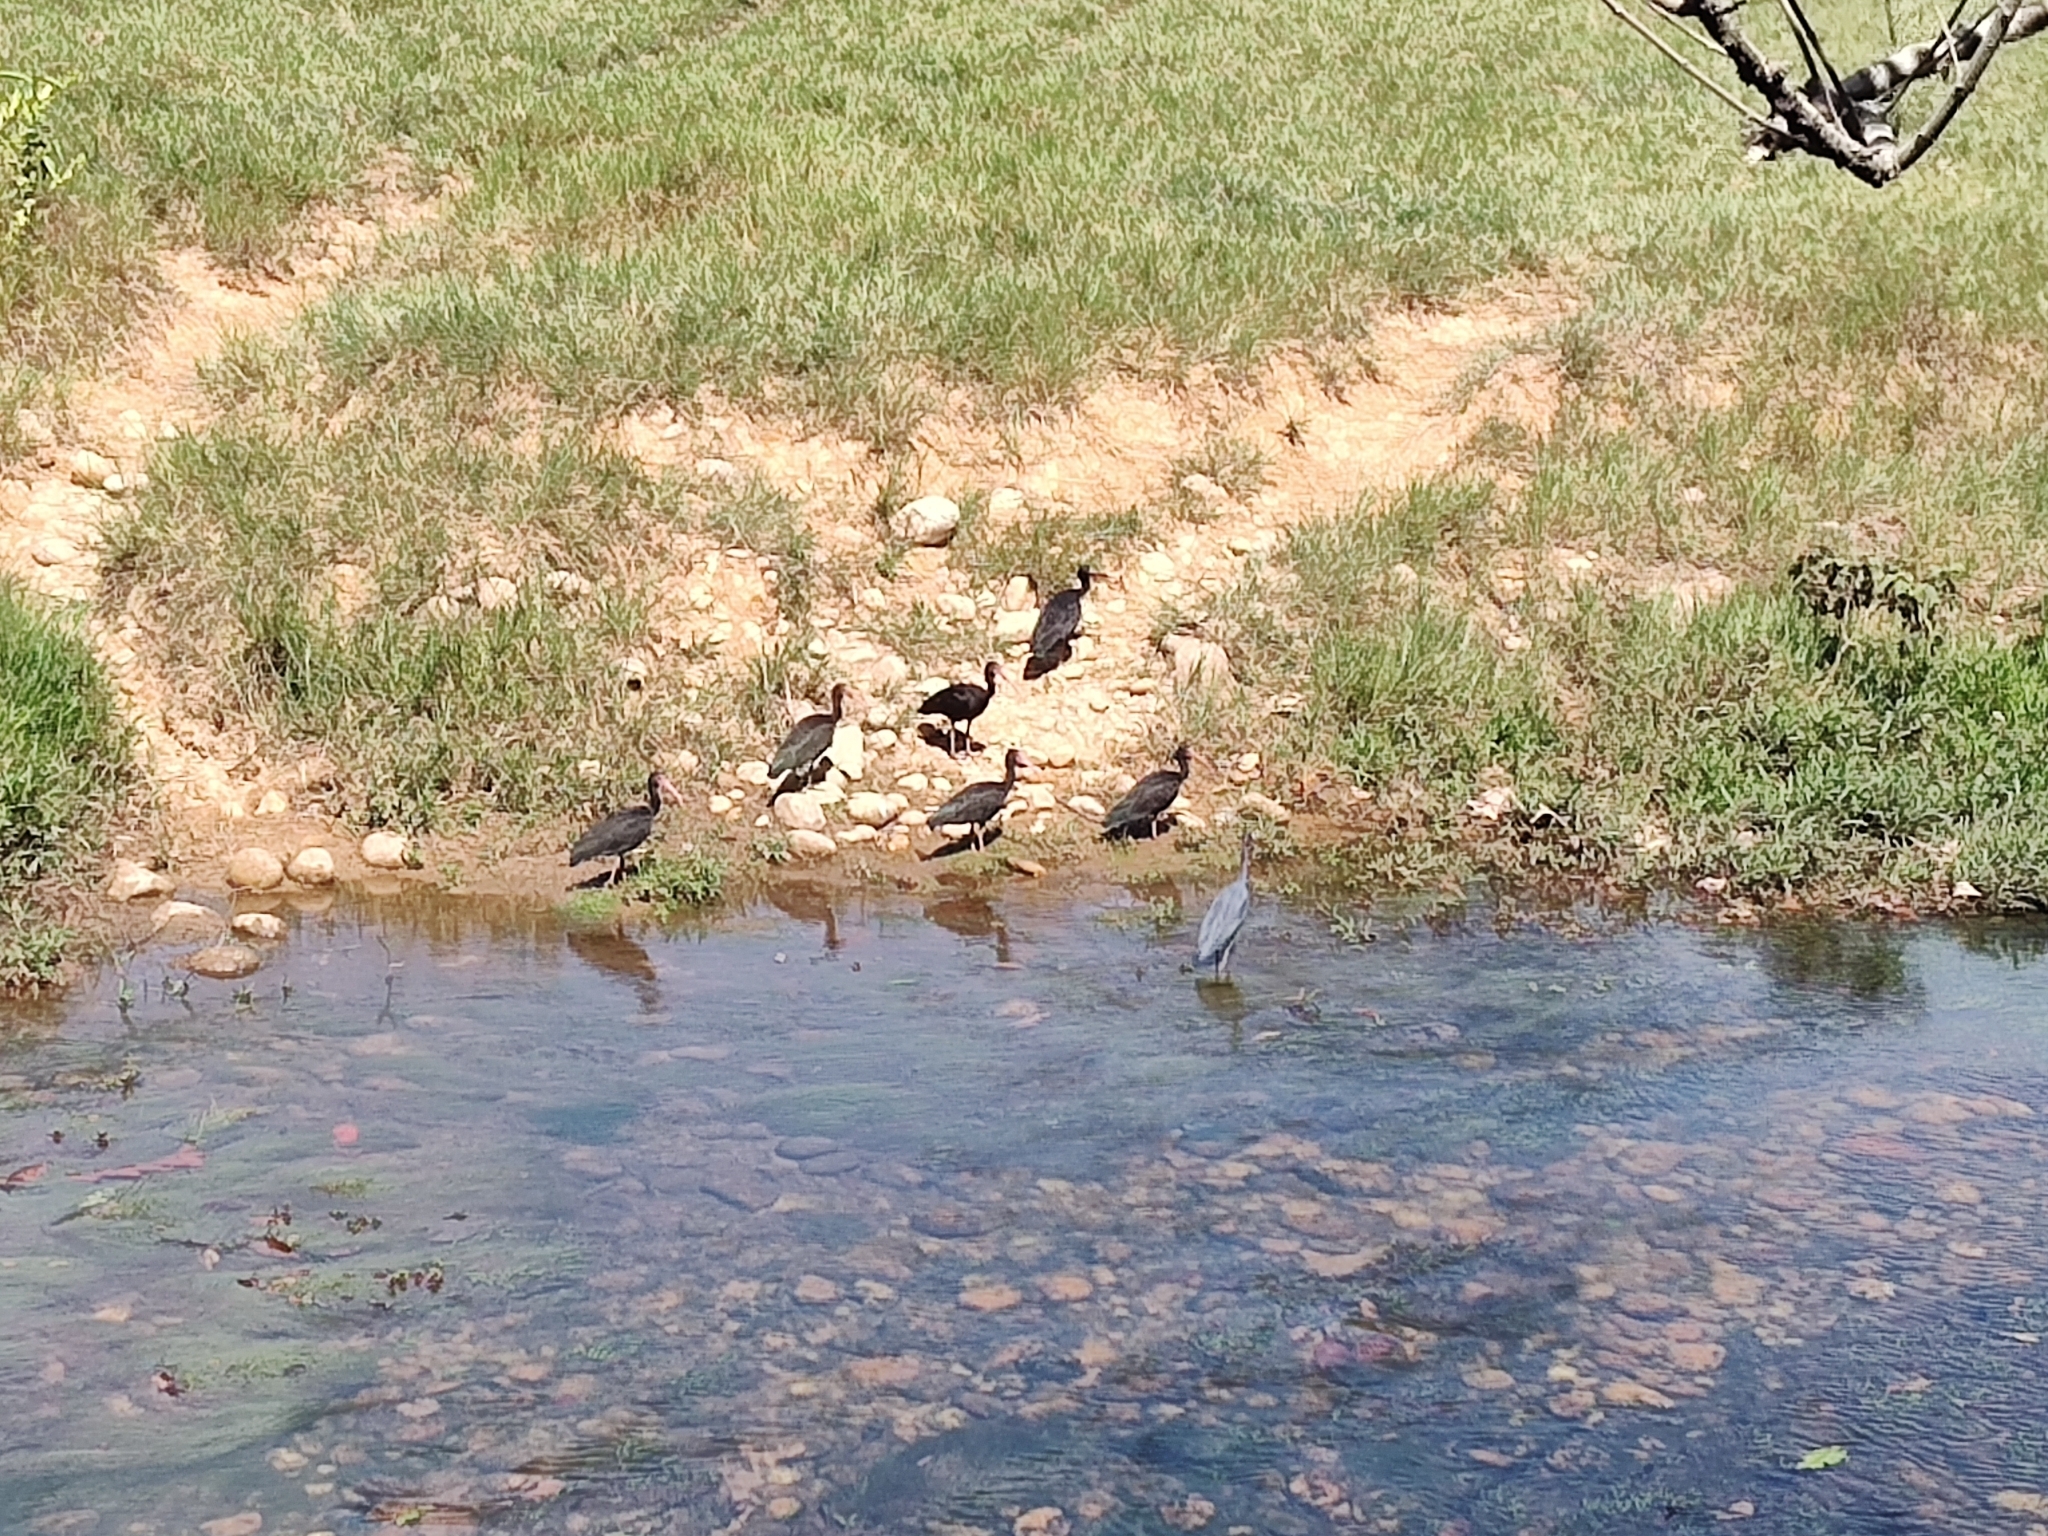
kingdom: Animalia
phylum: Chordata
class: Aves
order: Pelecaniformes
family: Threskiornithidae
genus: Phimosus
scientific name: Phimosus infuscatus
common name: Bare-faced ibis
